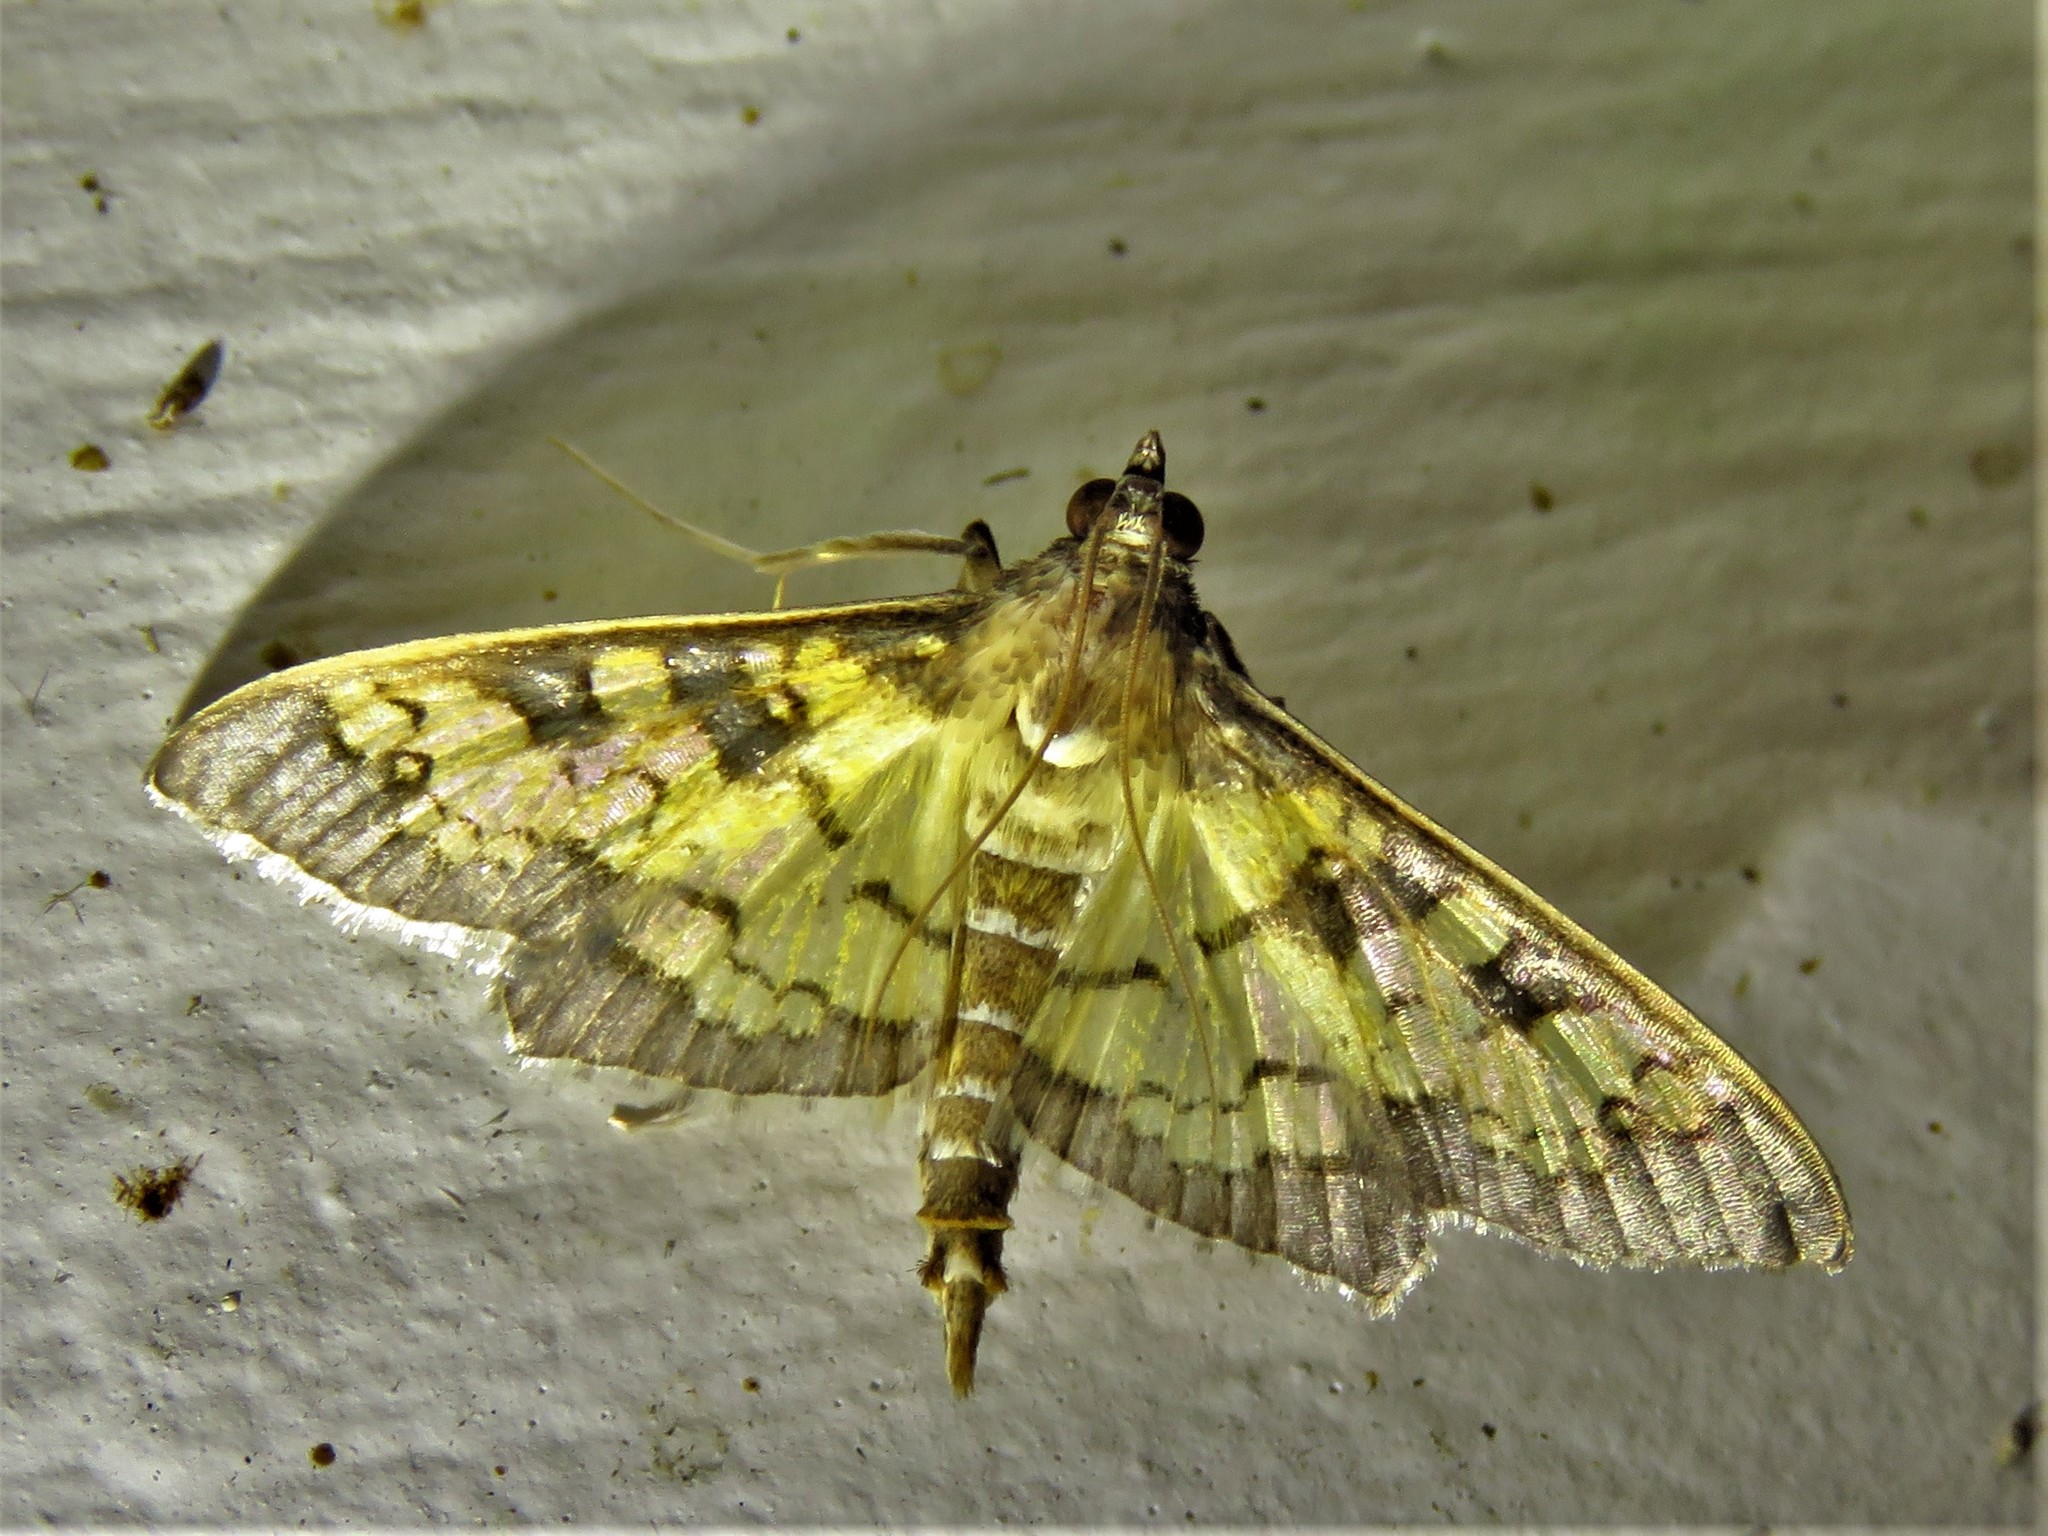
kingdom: Animalia
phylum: Arthropoda
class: Insecta
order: Lepidoptera
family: Crambidae
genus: Cryptographis
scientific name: Cryptographis elealis
